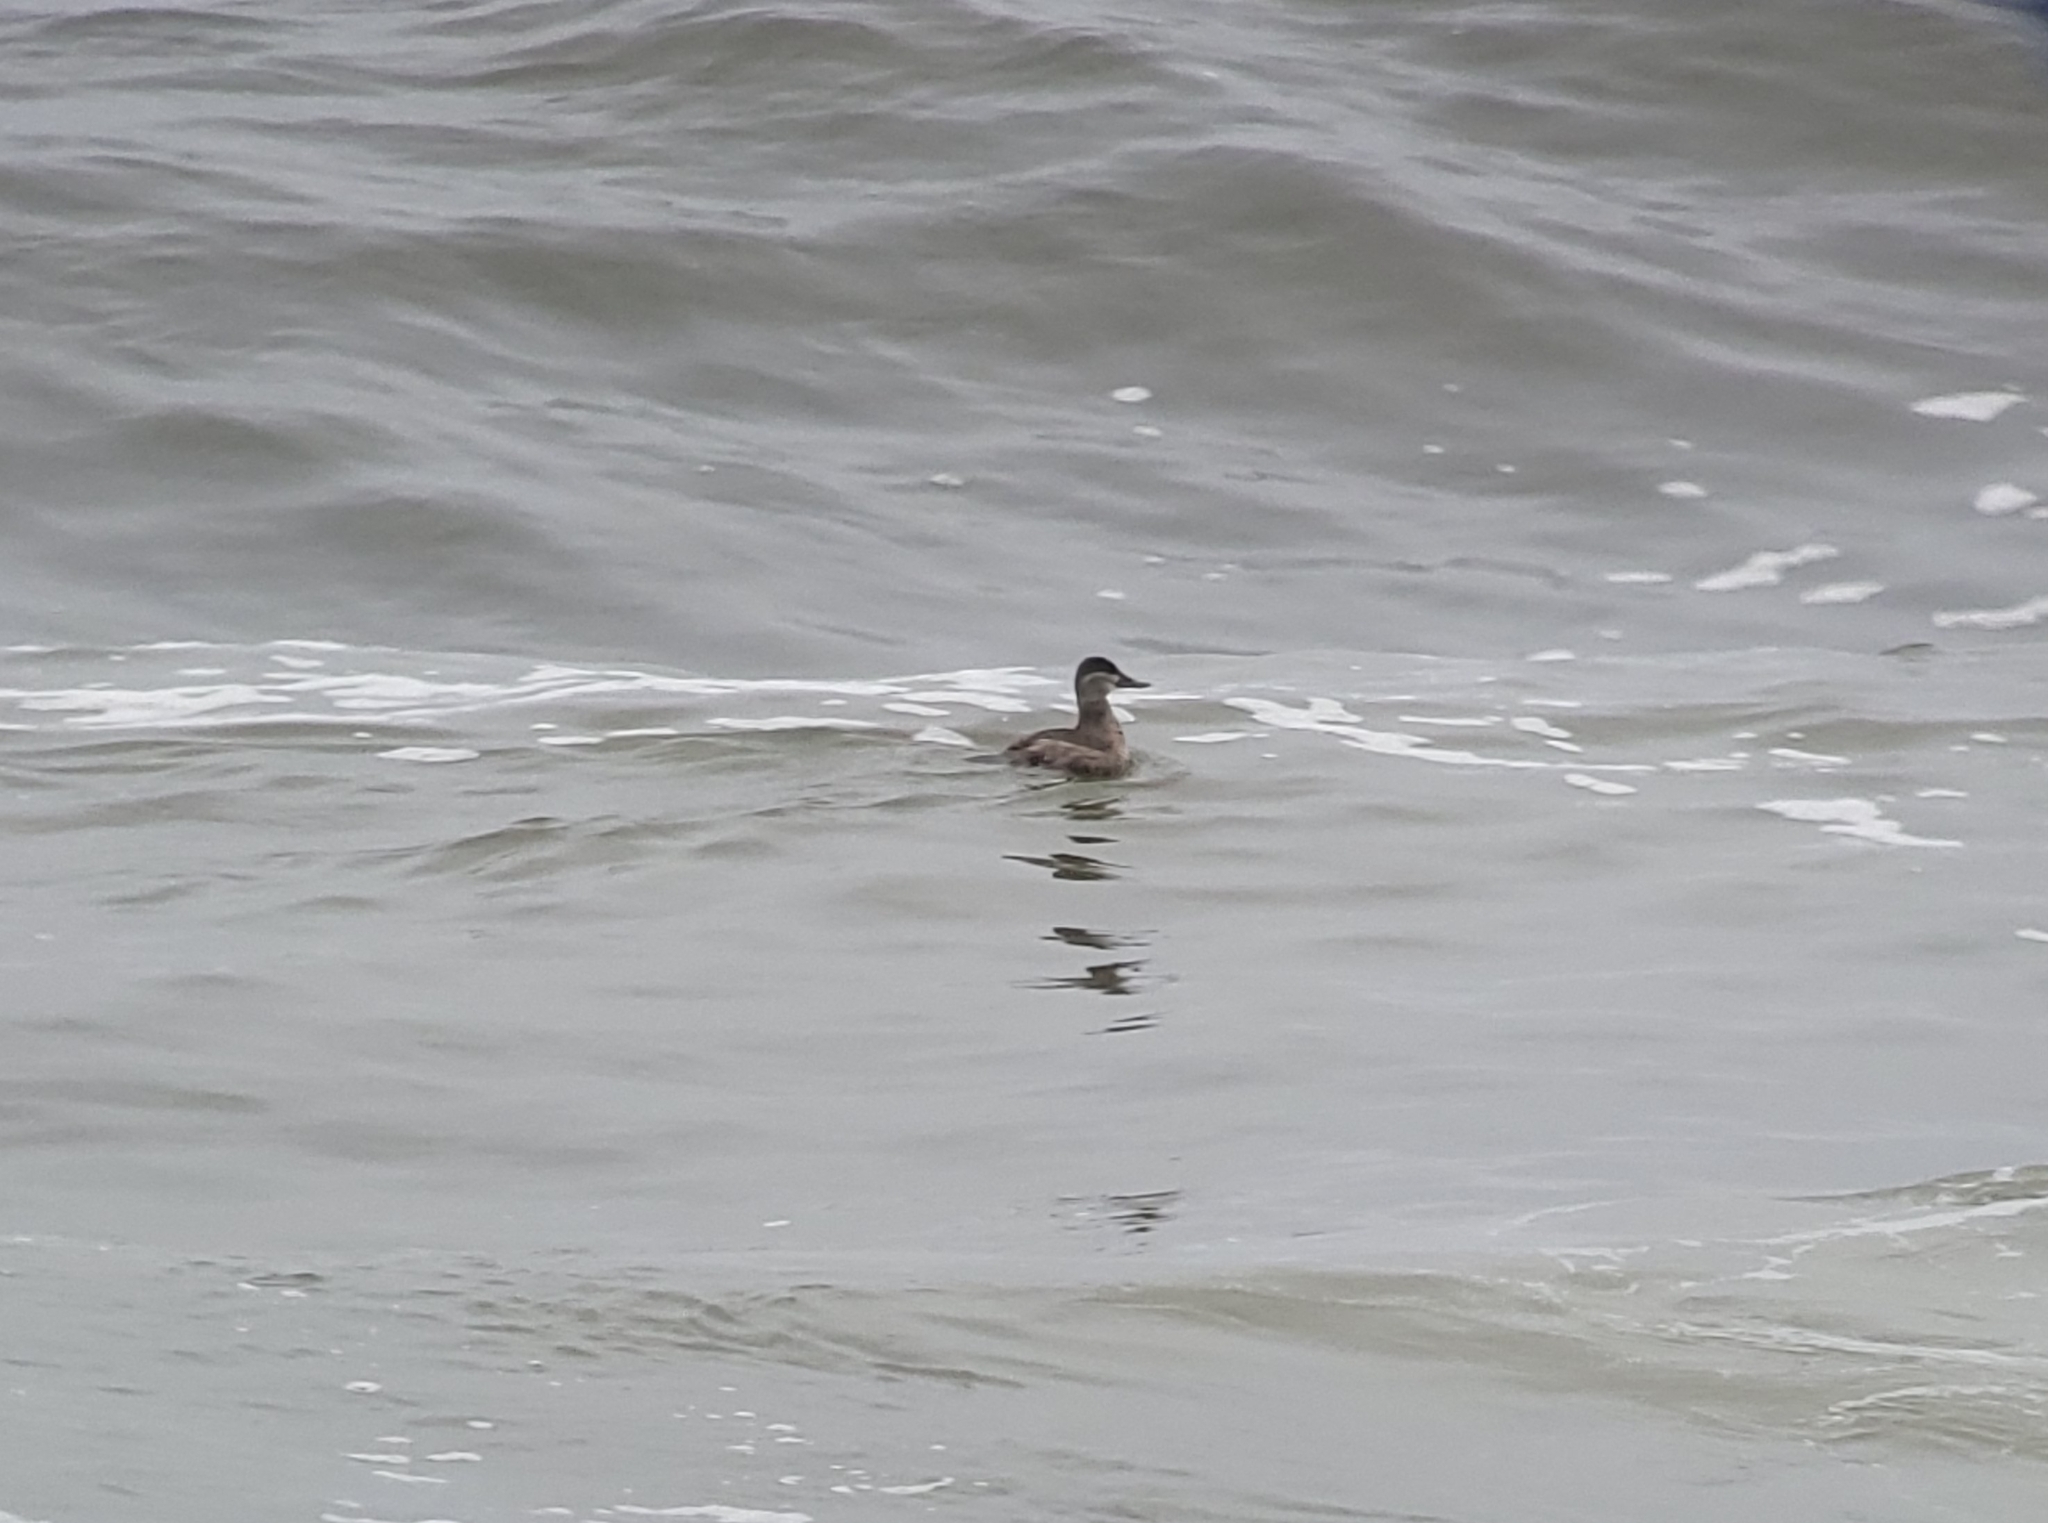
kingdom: Animalia
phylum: Chordata
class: Aves
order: Anseriformes
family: Anatidae
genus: Oxyura
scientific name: Oxyura jamaicensis
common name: Ruddy duck
